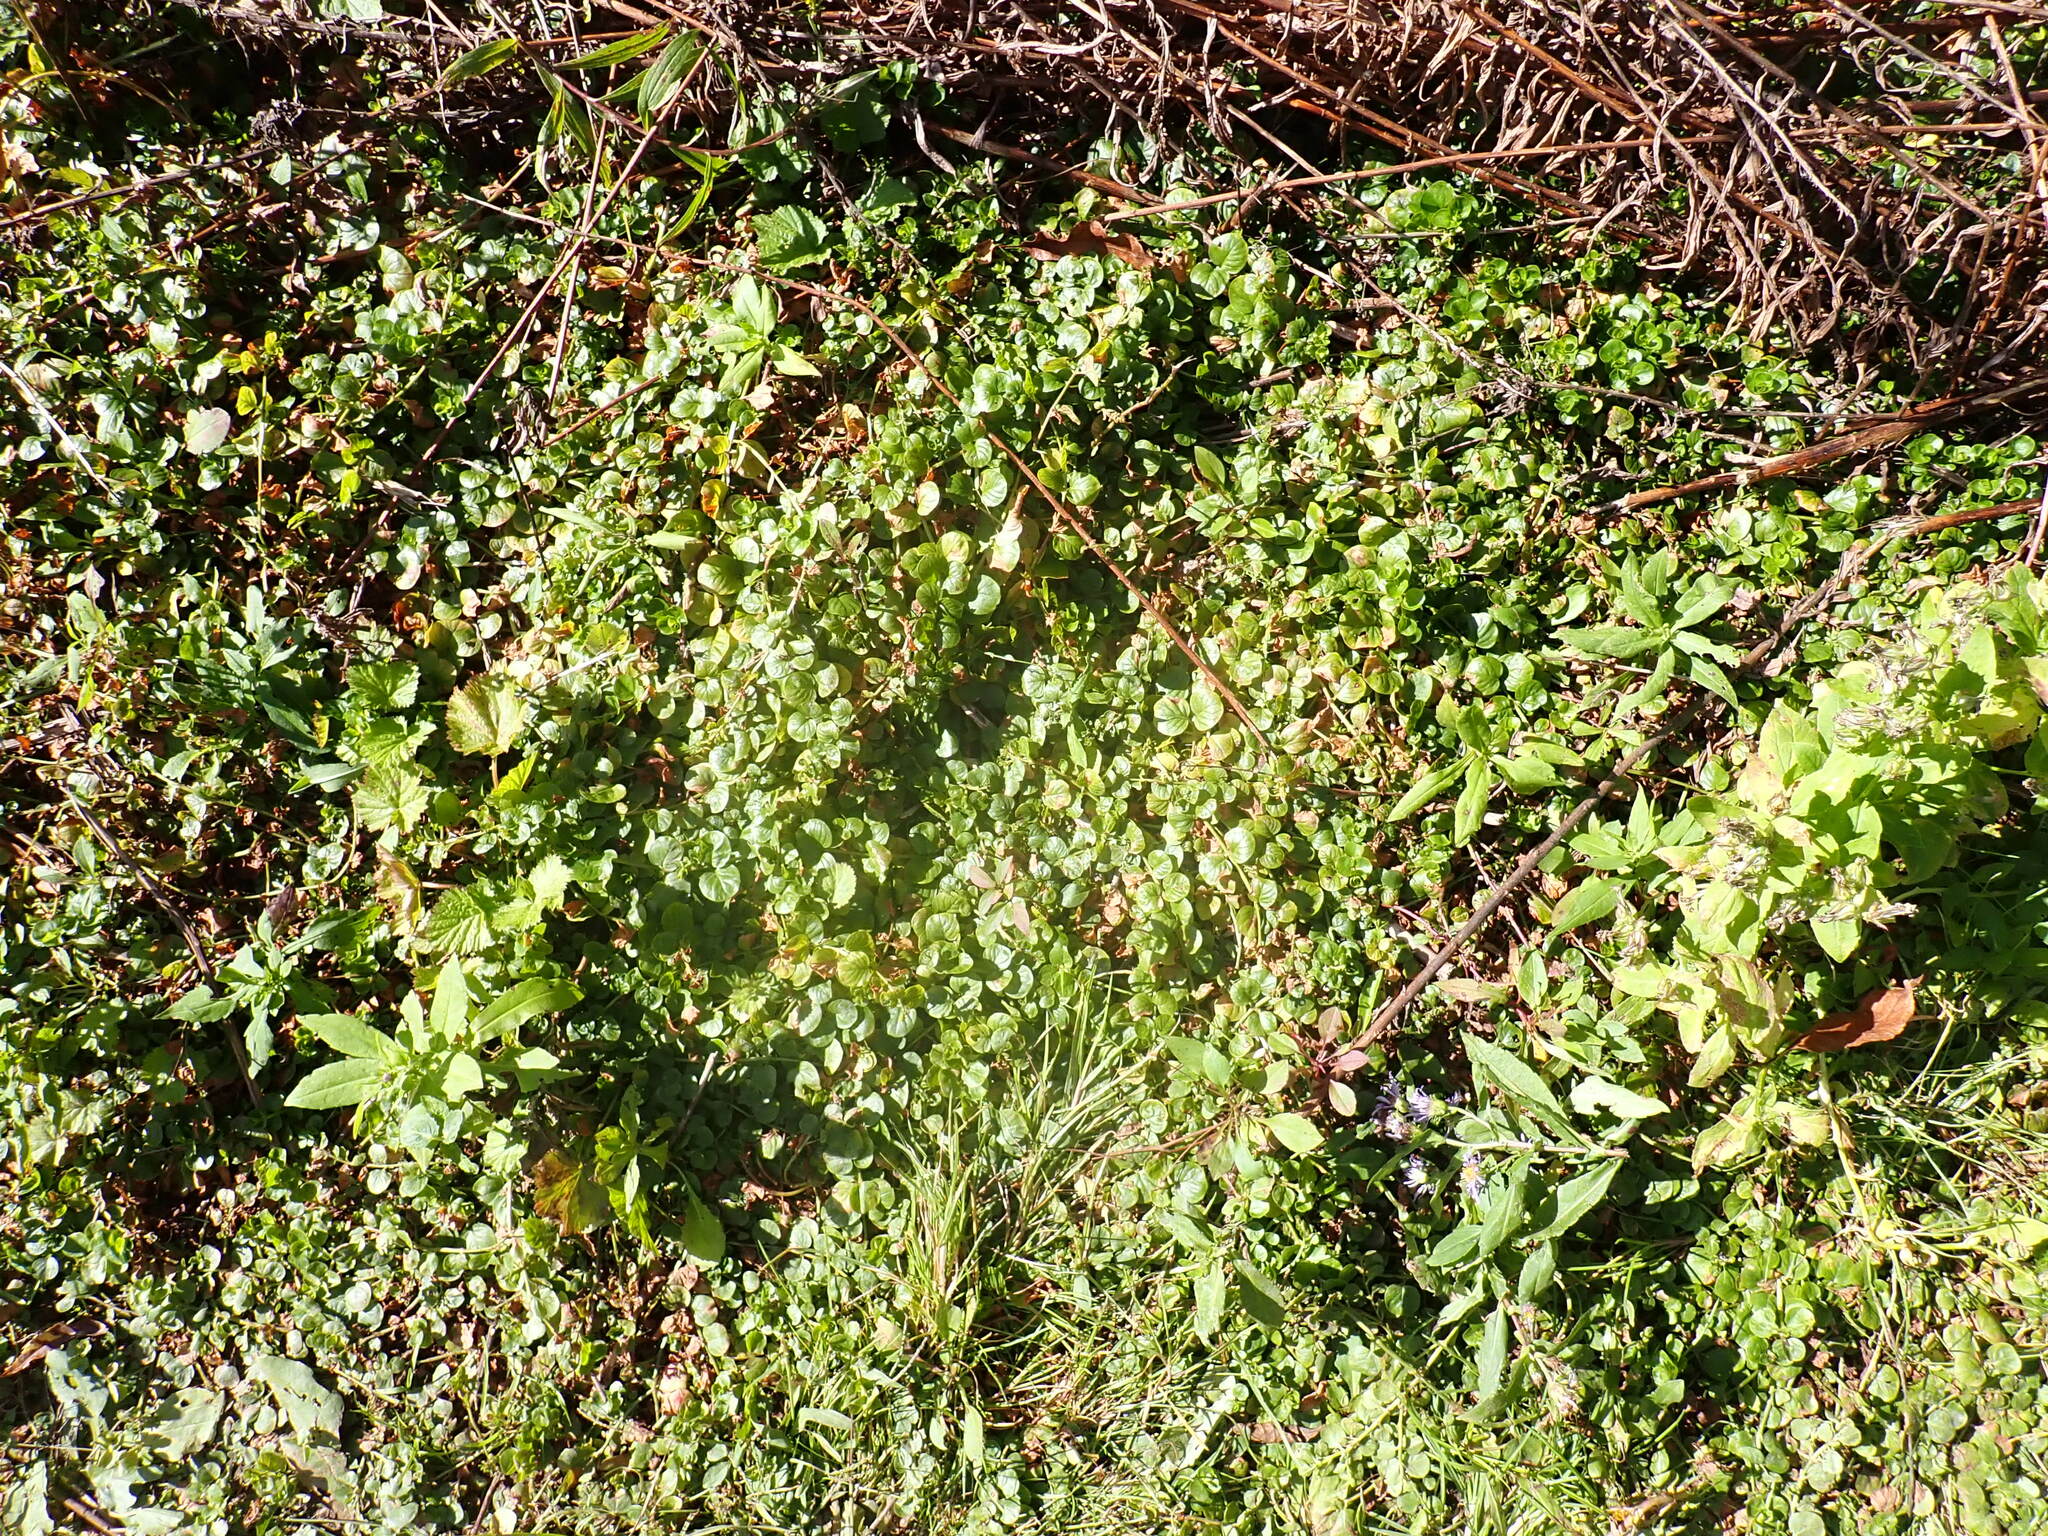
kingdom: Plantae
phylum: Tracheophyta
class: Magnoliopsida
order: Ericales
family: Primulaceae
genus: Lysimachia
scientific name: Lysimachia nummularia
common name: Moneywort
